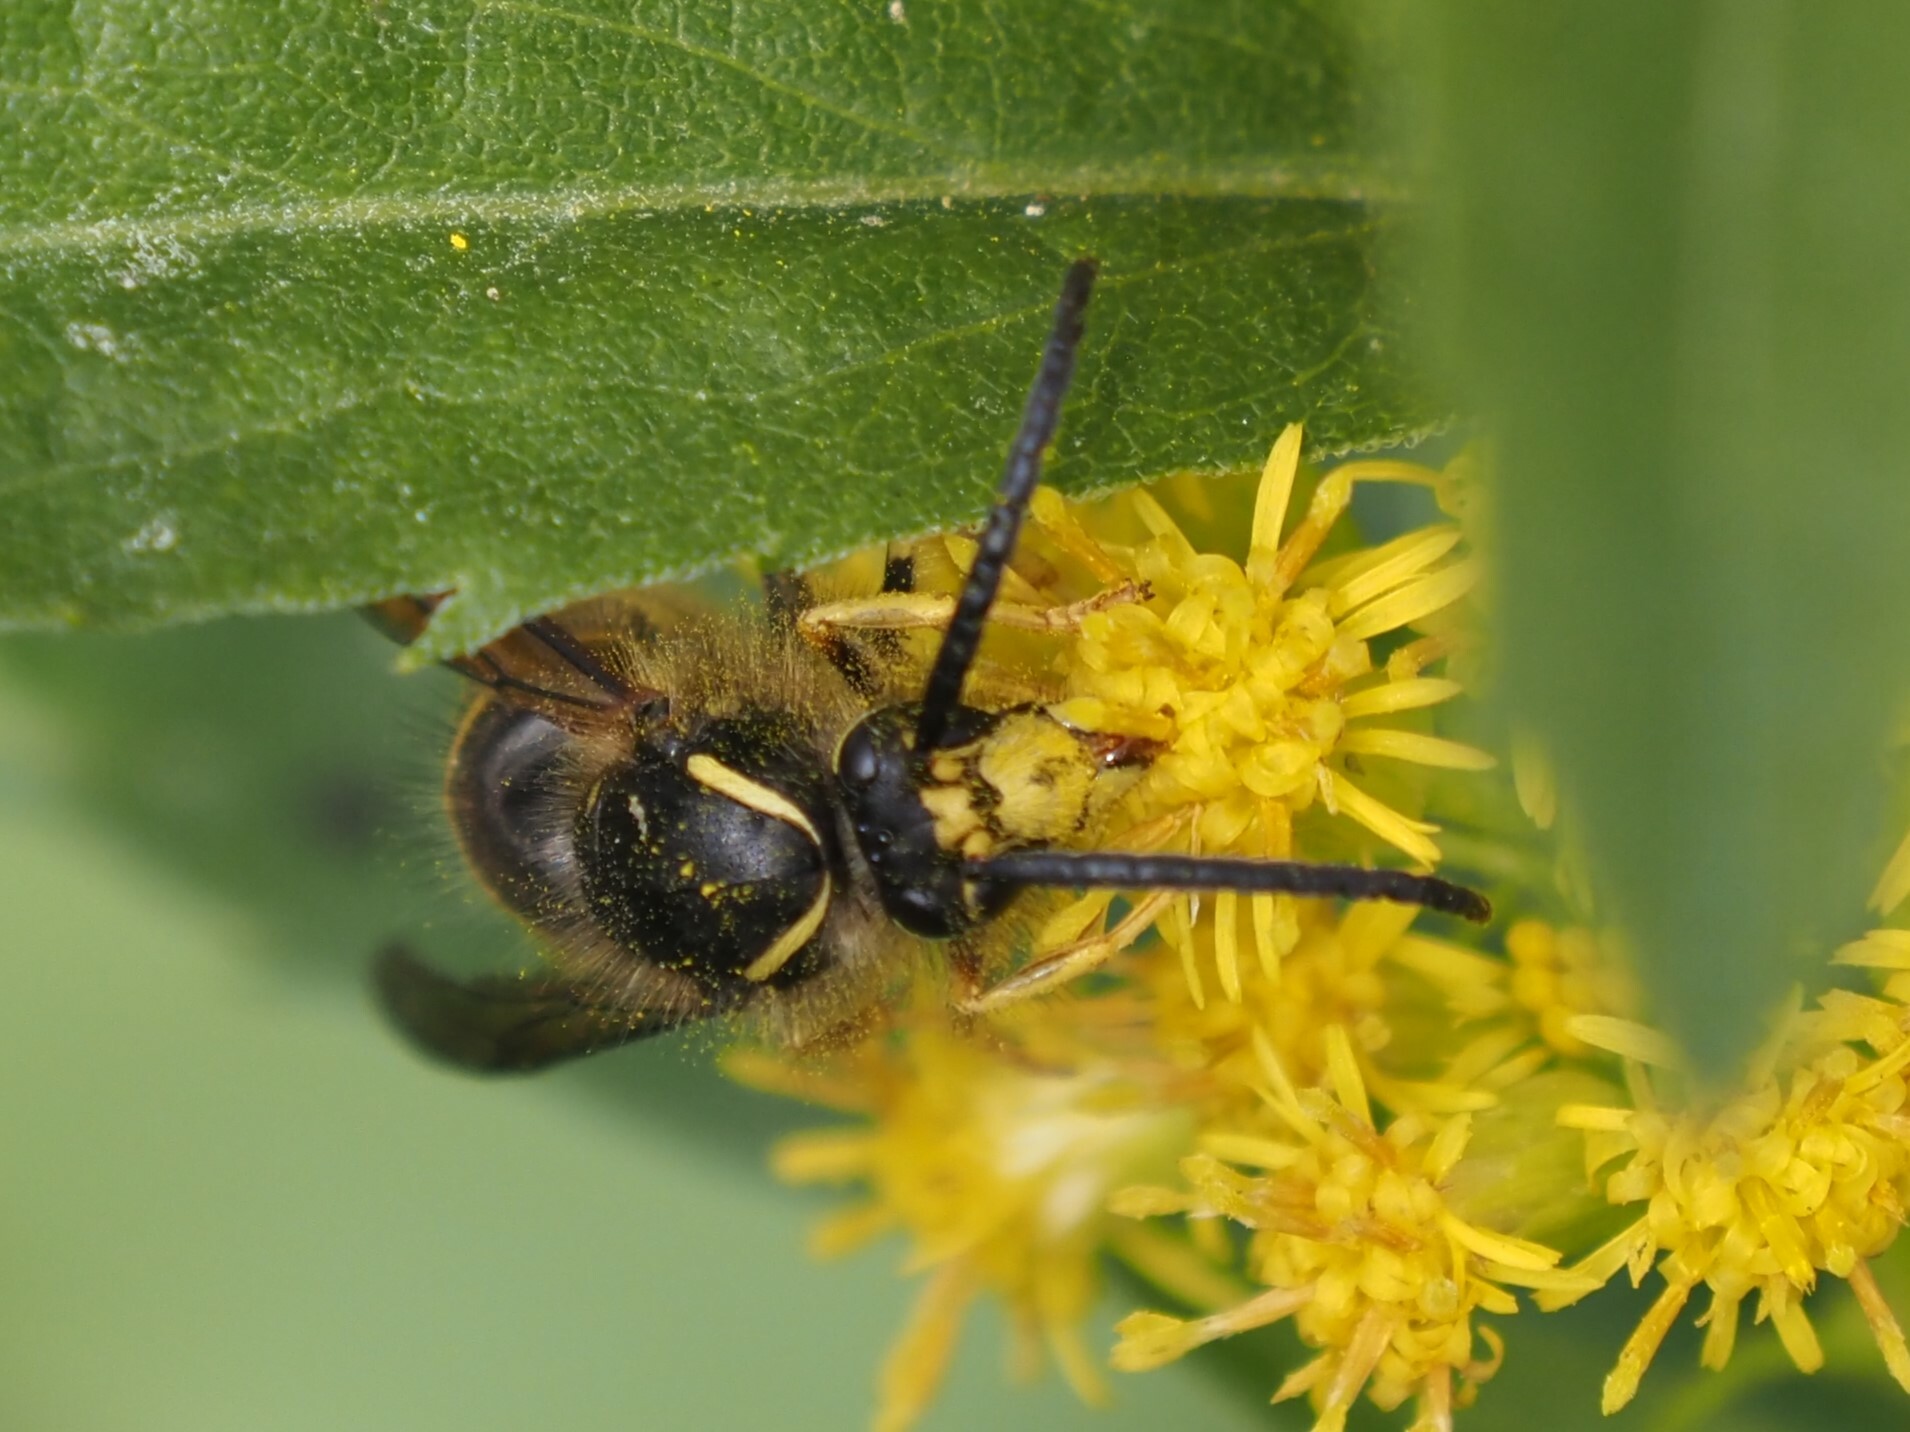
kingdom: Animalia
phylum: Arthropoda
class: Insecta
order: Hymenoptera
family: Vespidae
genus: Dolichovespula
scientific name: Dolichovespula norvegicoides
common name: Northern aerial yellowjacket
